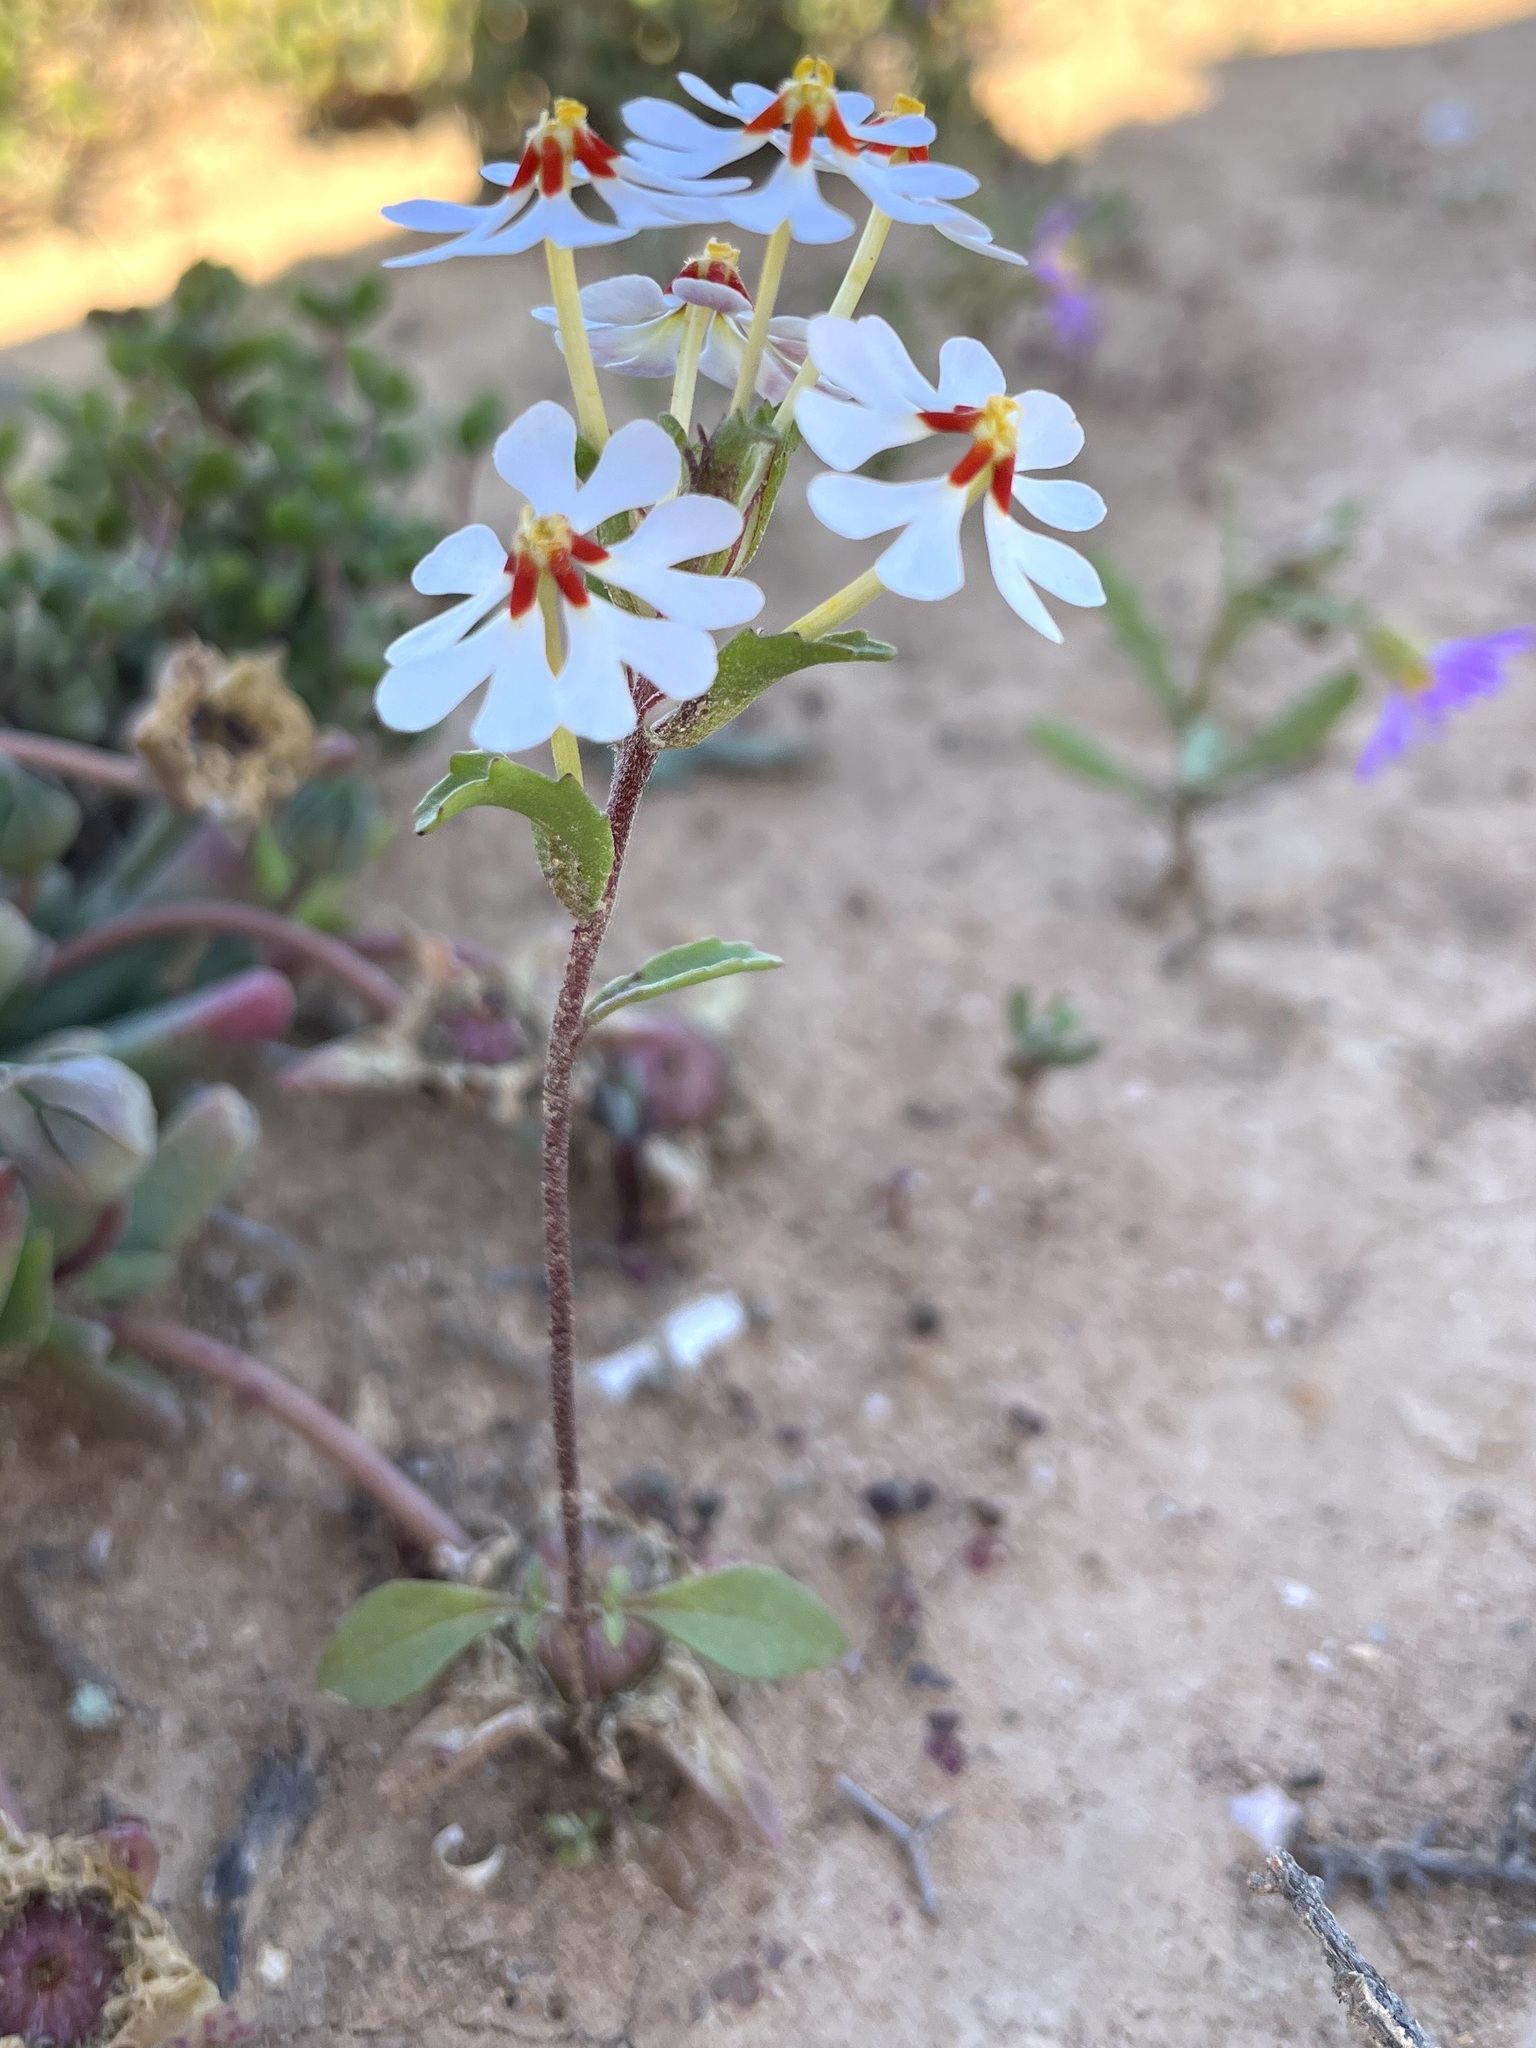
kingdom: Plantae
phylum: Tracheophyta
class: Magnoliopsida
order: Lamiales
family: Scrophulariaceae
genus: Zaluzianskya
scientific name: Zaluzianskya pumila
